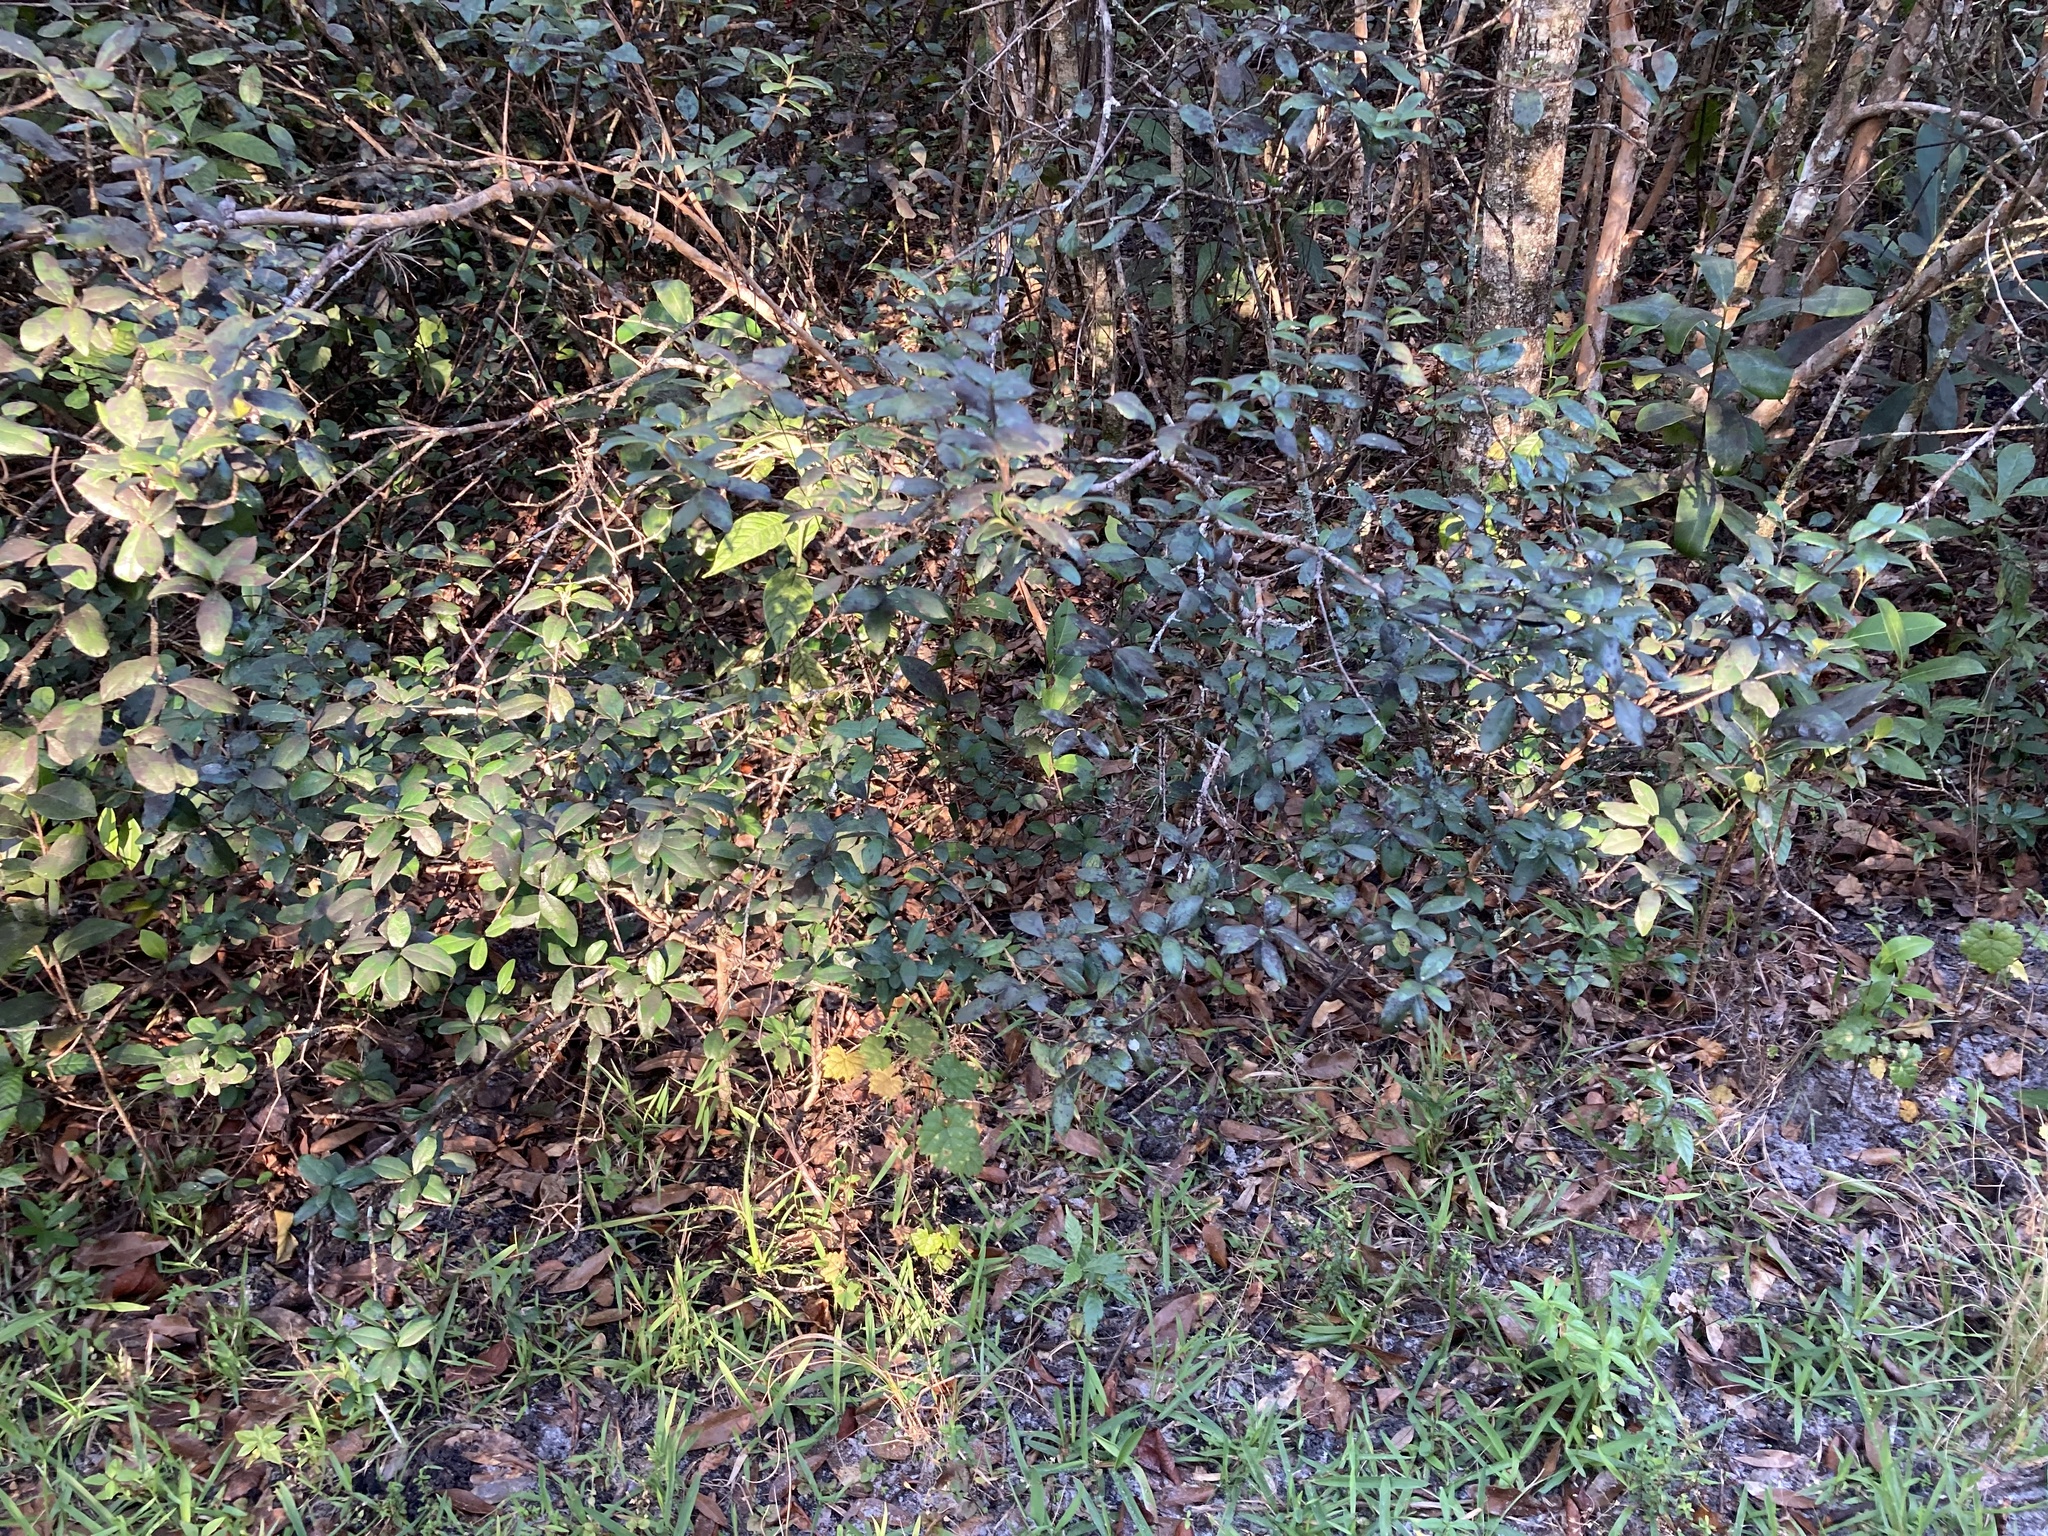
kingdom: Plantae
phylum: Tracheophyta
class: Magnoliopsida
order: Myrtales
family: Myrtaceae
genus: Myrcianthes
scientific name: Myrcianthes fragrans
